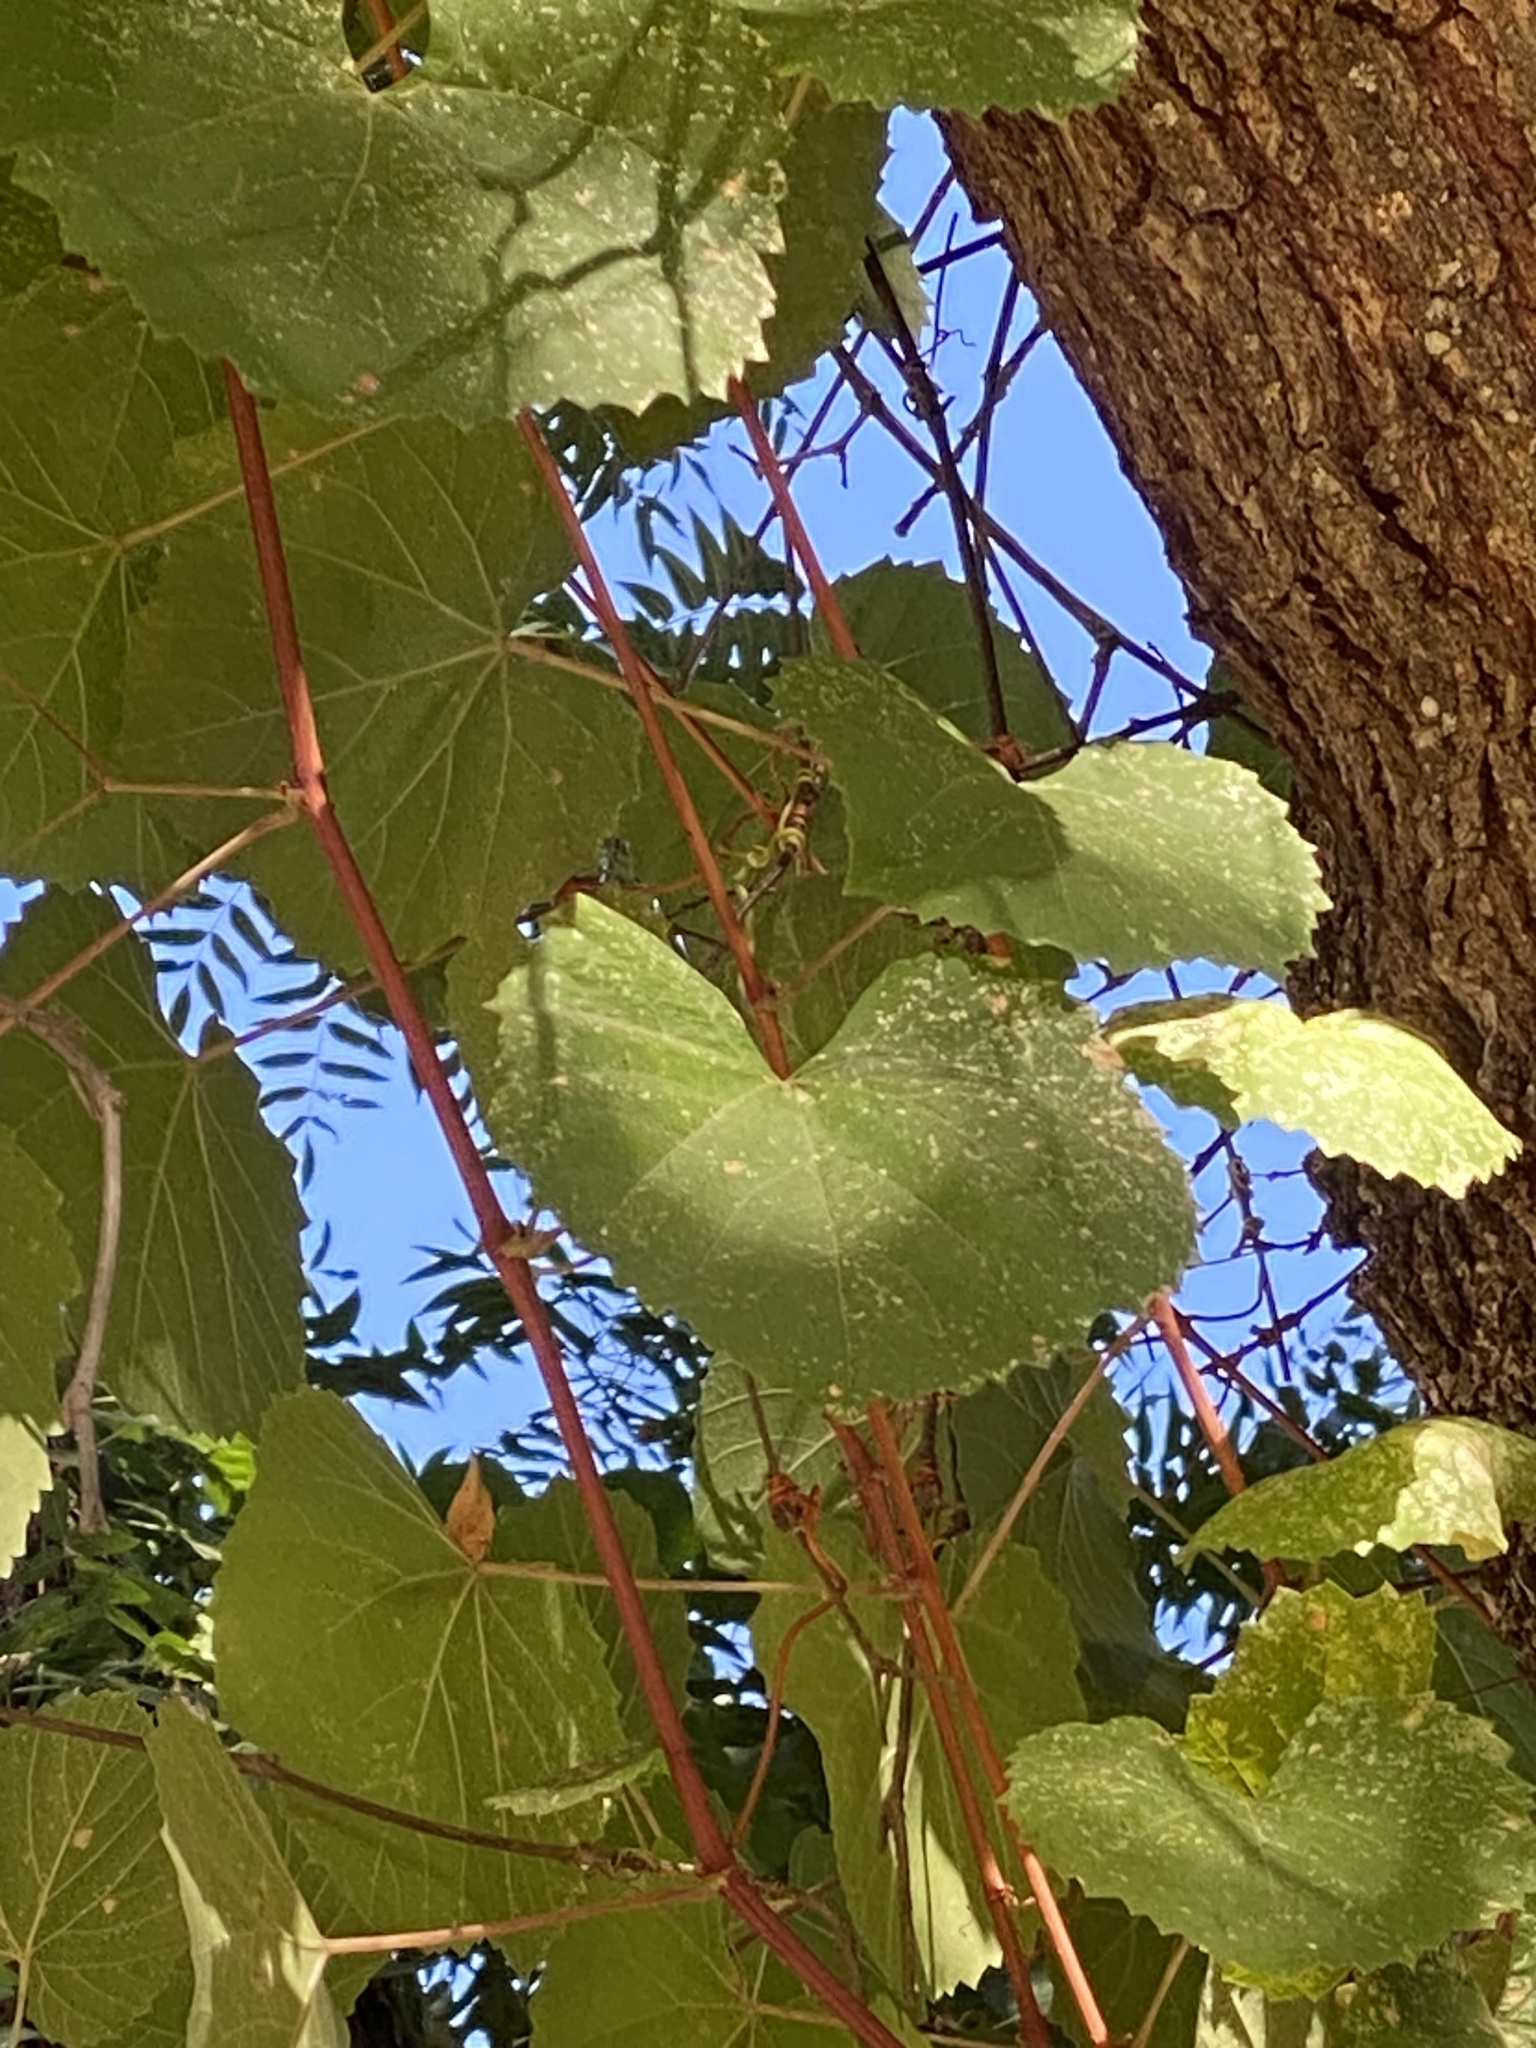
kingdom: Plantae
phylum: Tracheophyta
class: Magnoliopsida
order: Vitales
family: Vitaceae
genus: Vitis
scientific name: Vitis californica
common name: California wild grape
